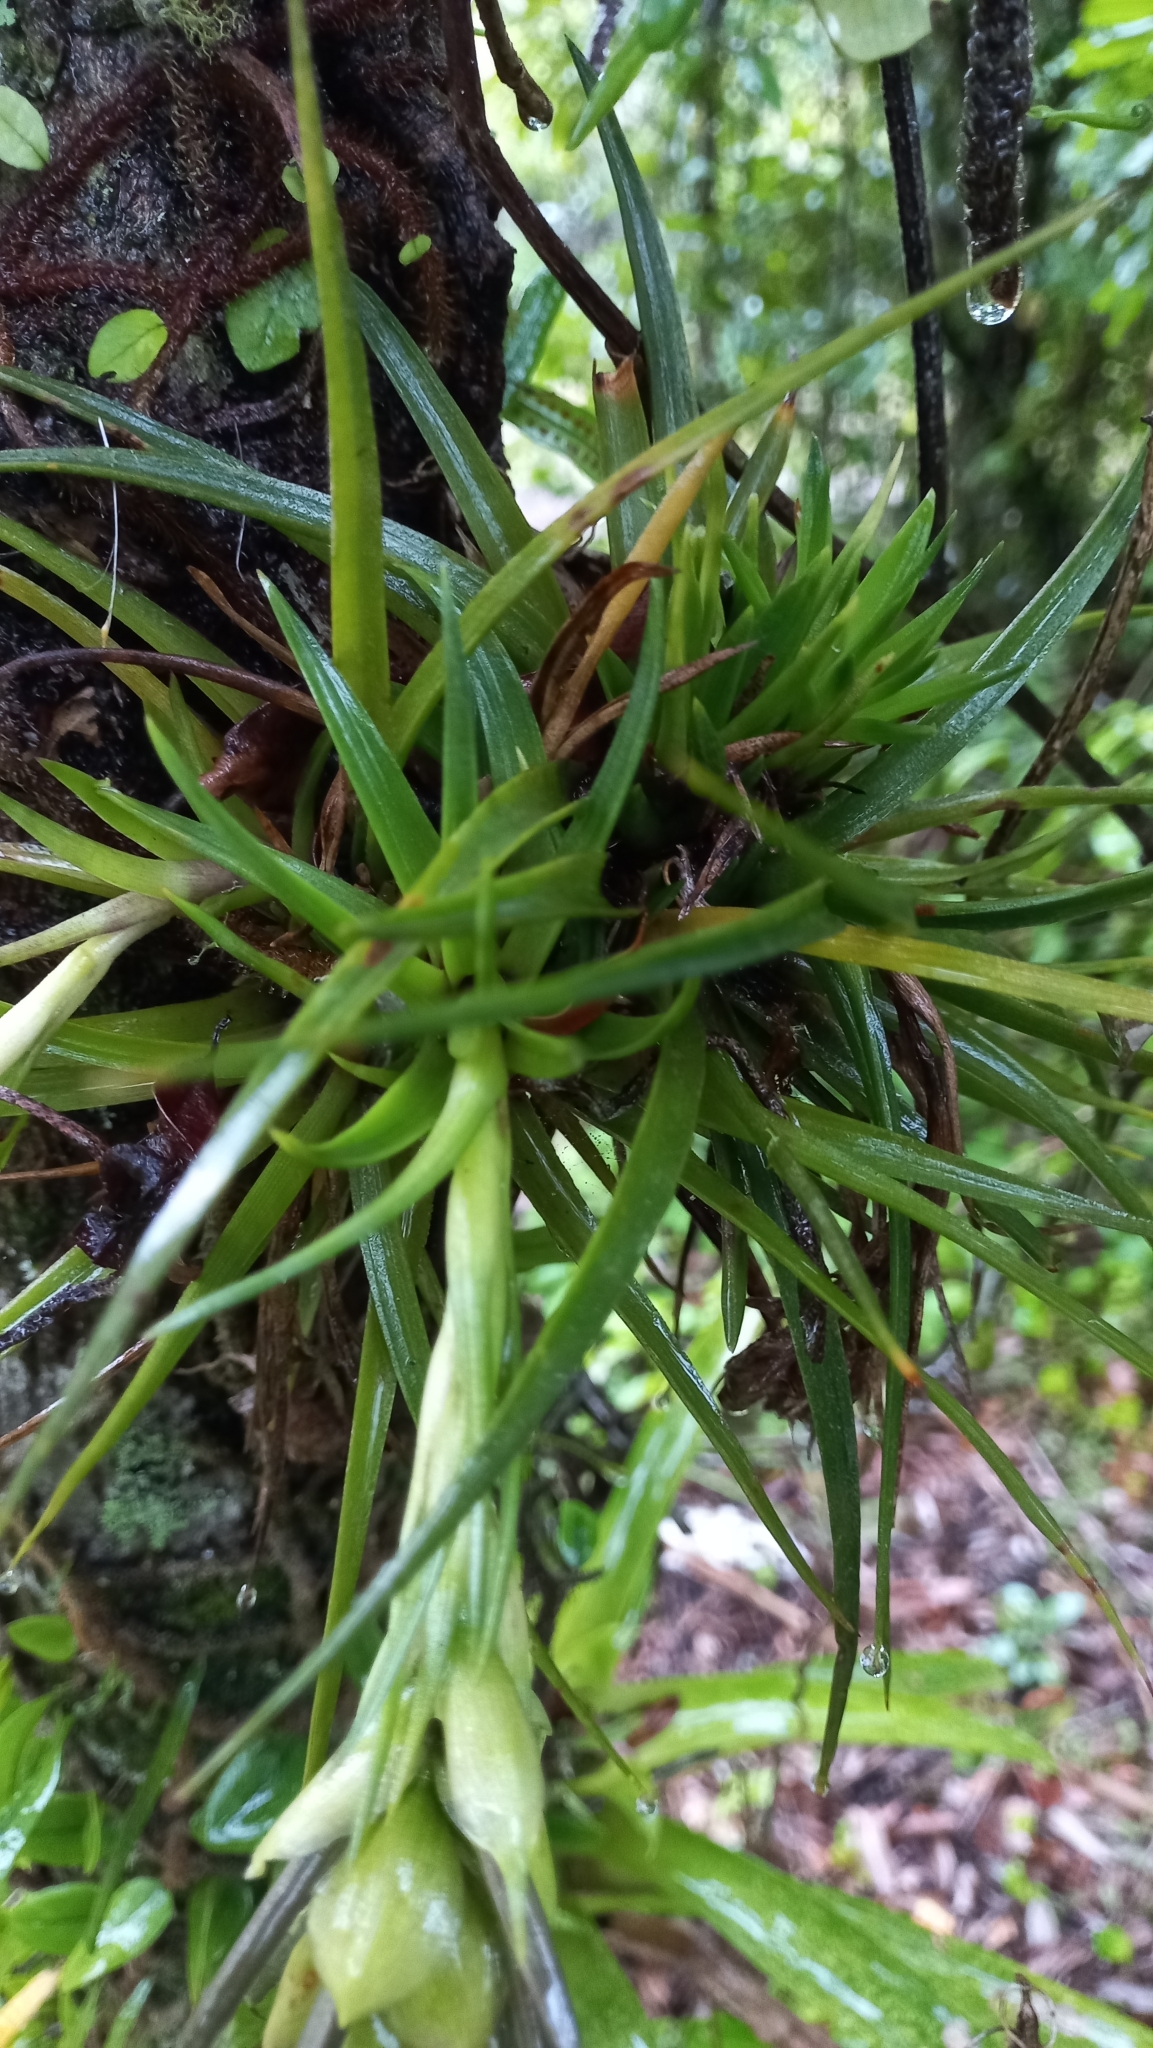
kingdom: Plantae
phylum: Tracheophyta
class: Liliopsida
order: Poales
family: Bromeliaceae
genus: Tillandsia
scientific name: Tillandsia stricta
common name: Airplant
